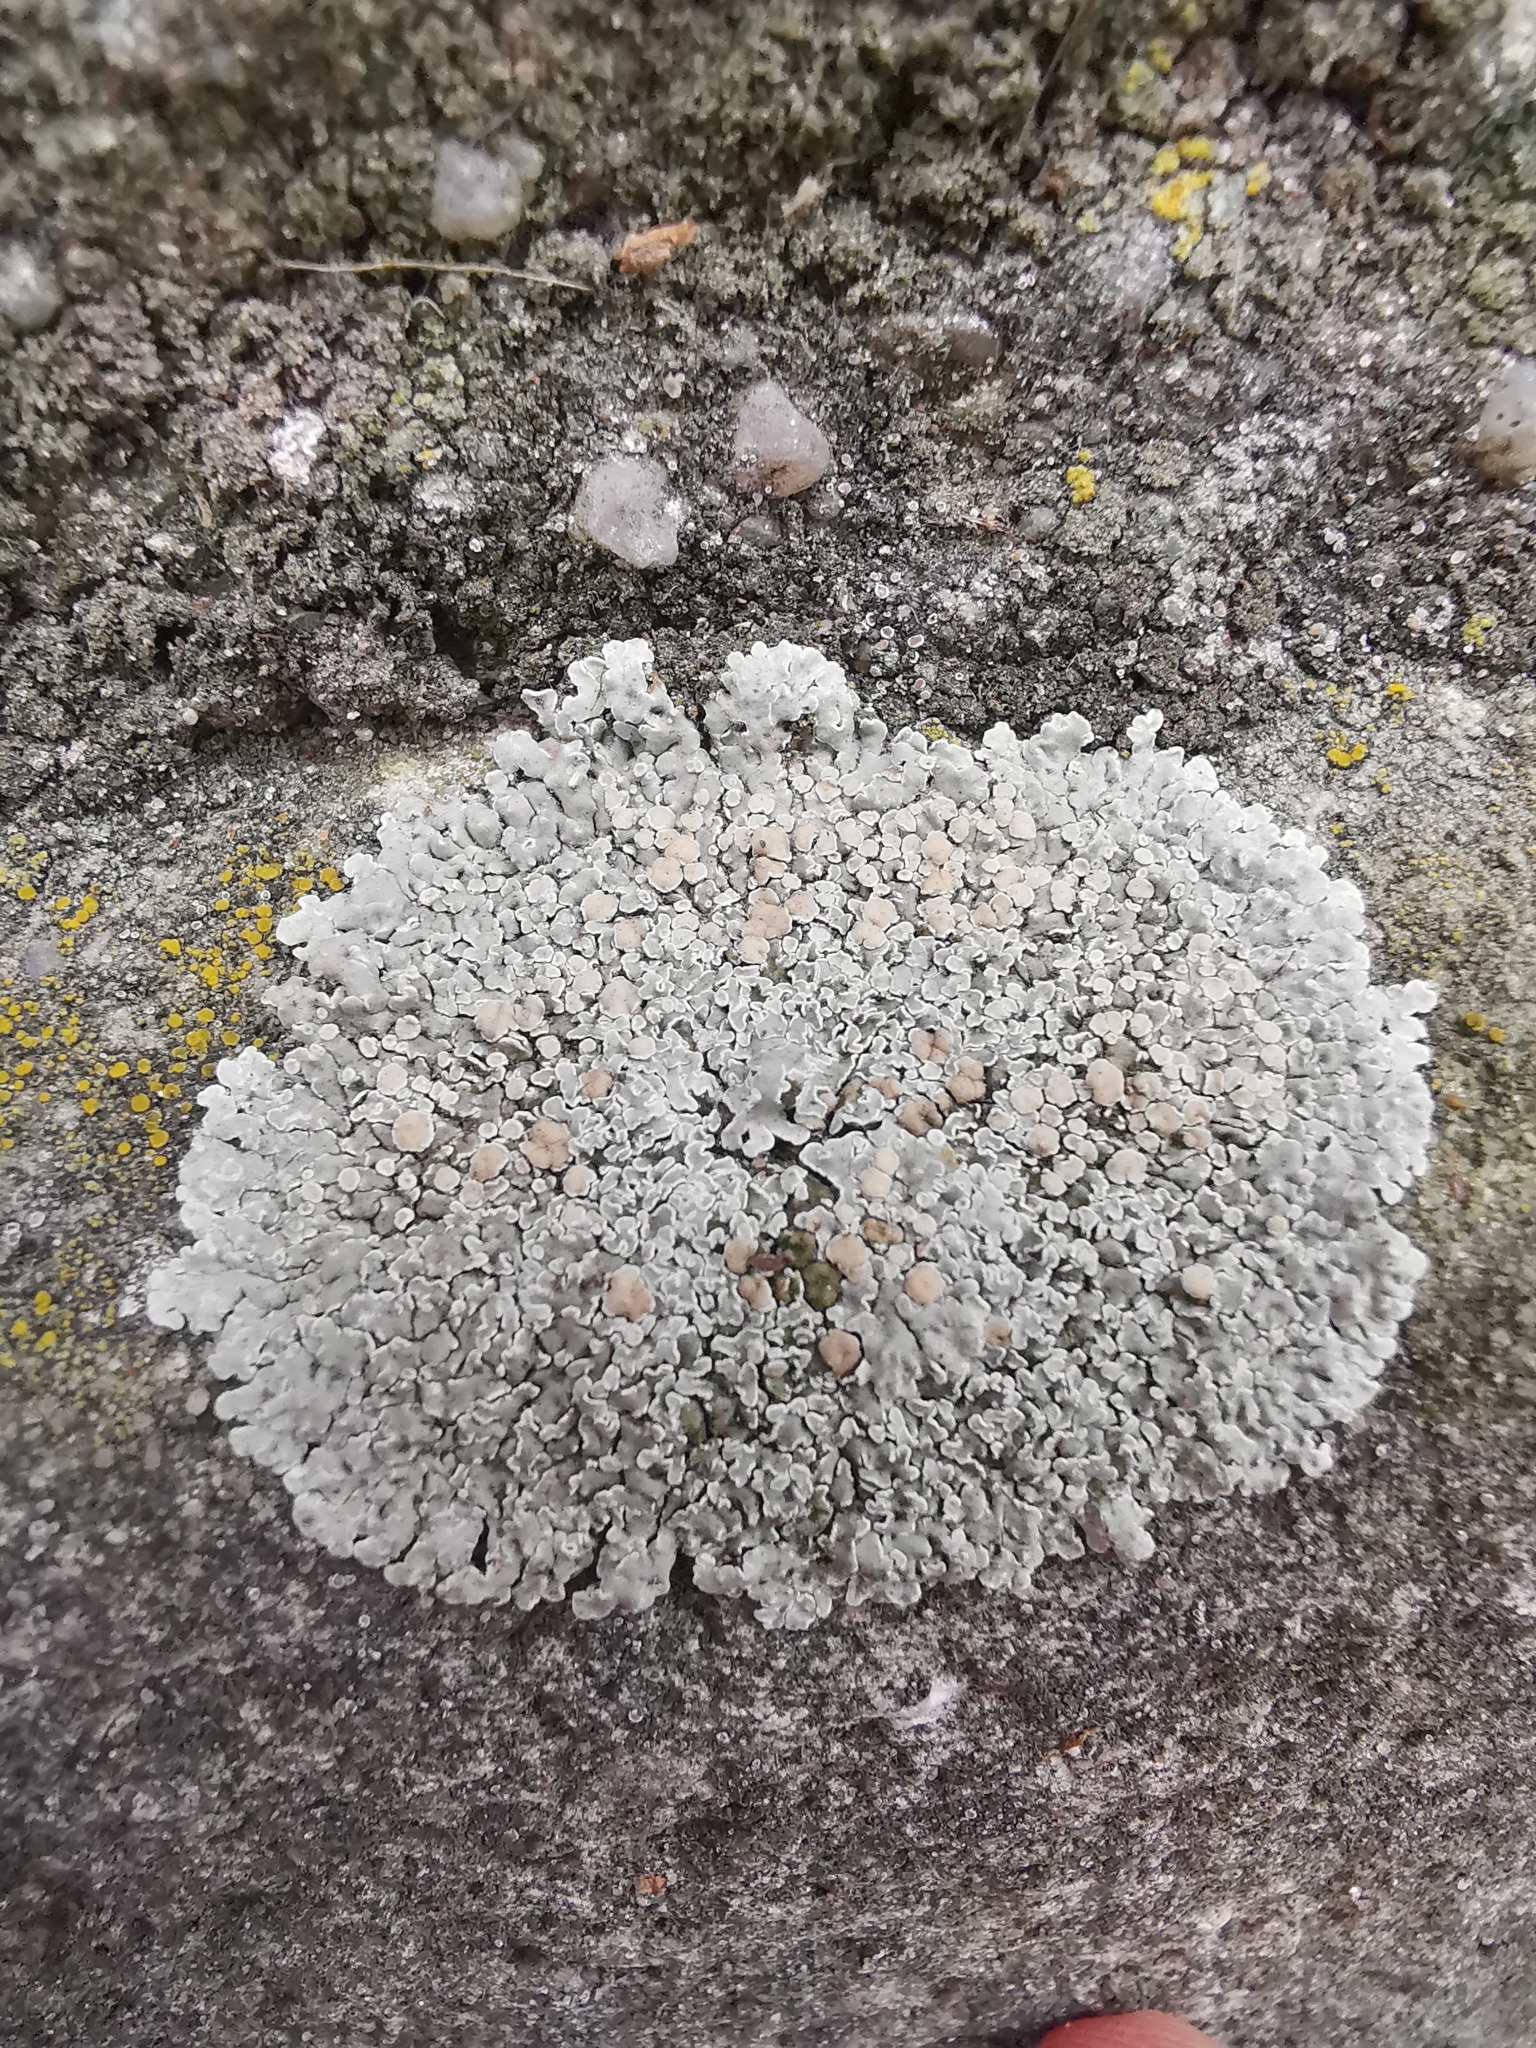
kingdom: Fungi
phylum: Ascomycota
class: Lecanoromycetes
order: Lecanorales
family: Lecanoraceae
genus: Protoparmeliopsis
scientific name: Protoparmeliopsis muralis
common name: Stonewall rim lichen
